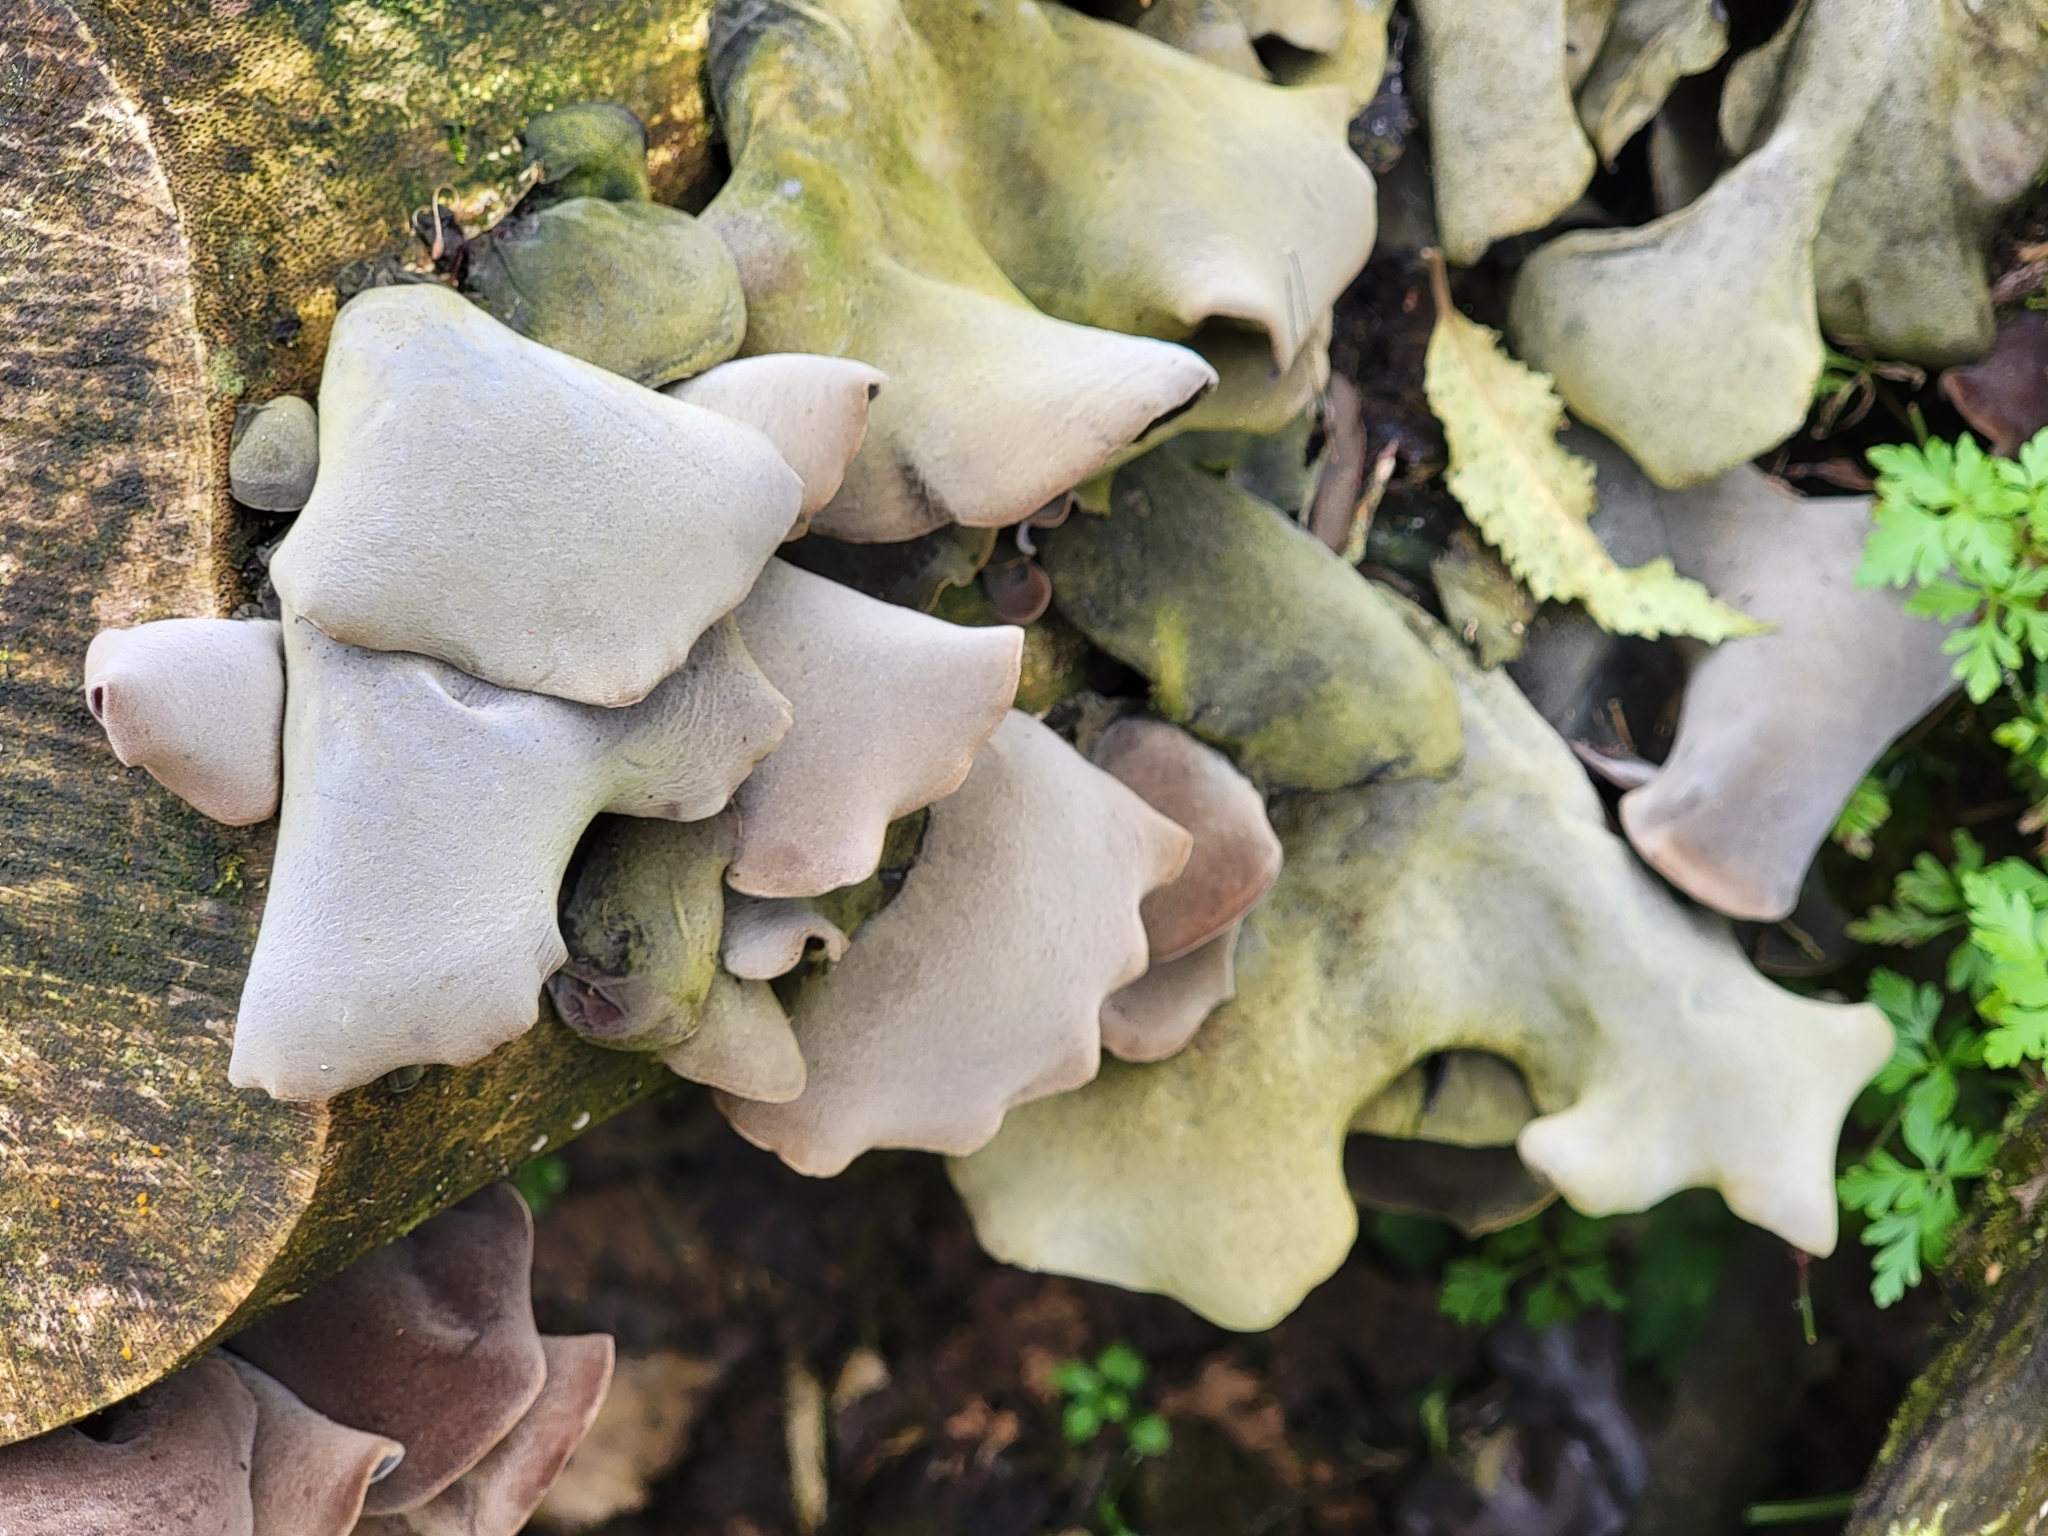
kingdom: Fungi
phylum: Basidiomycota
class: Agaricomycetes
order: Auriculariales
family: Auriculariaceae
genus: Auricularia
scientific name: Auricularia cornea
